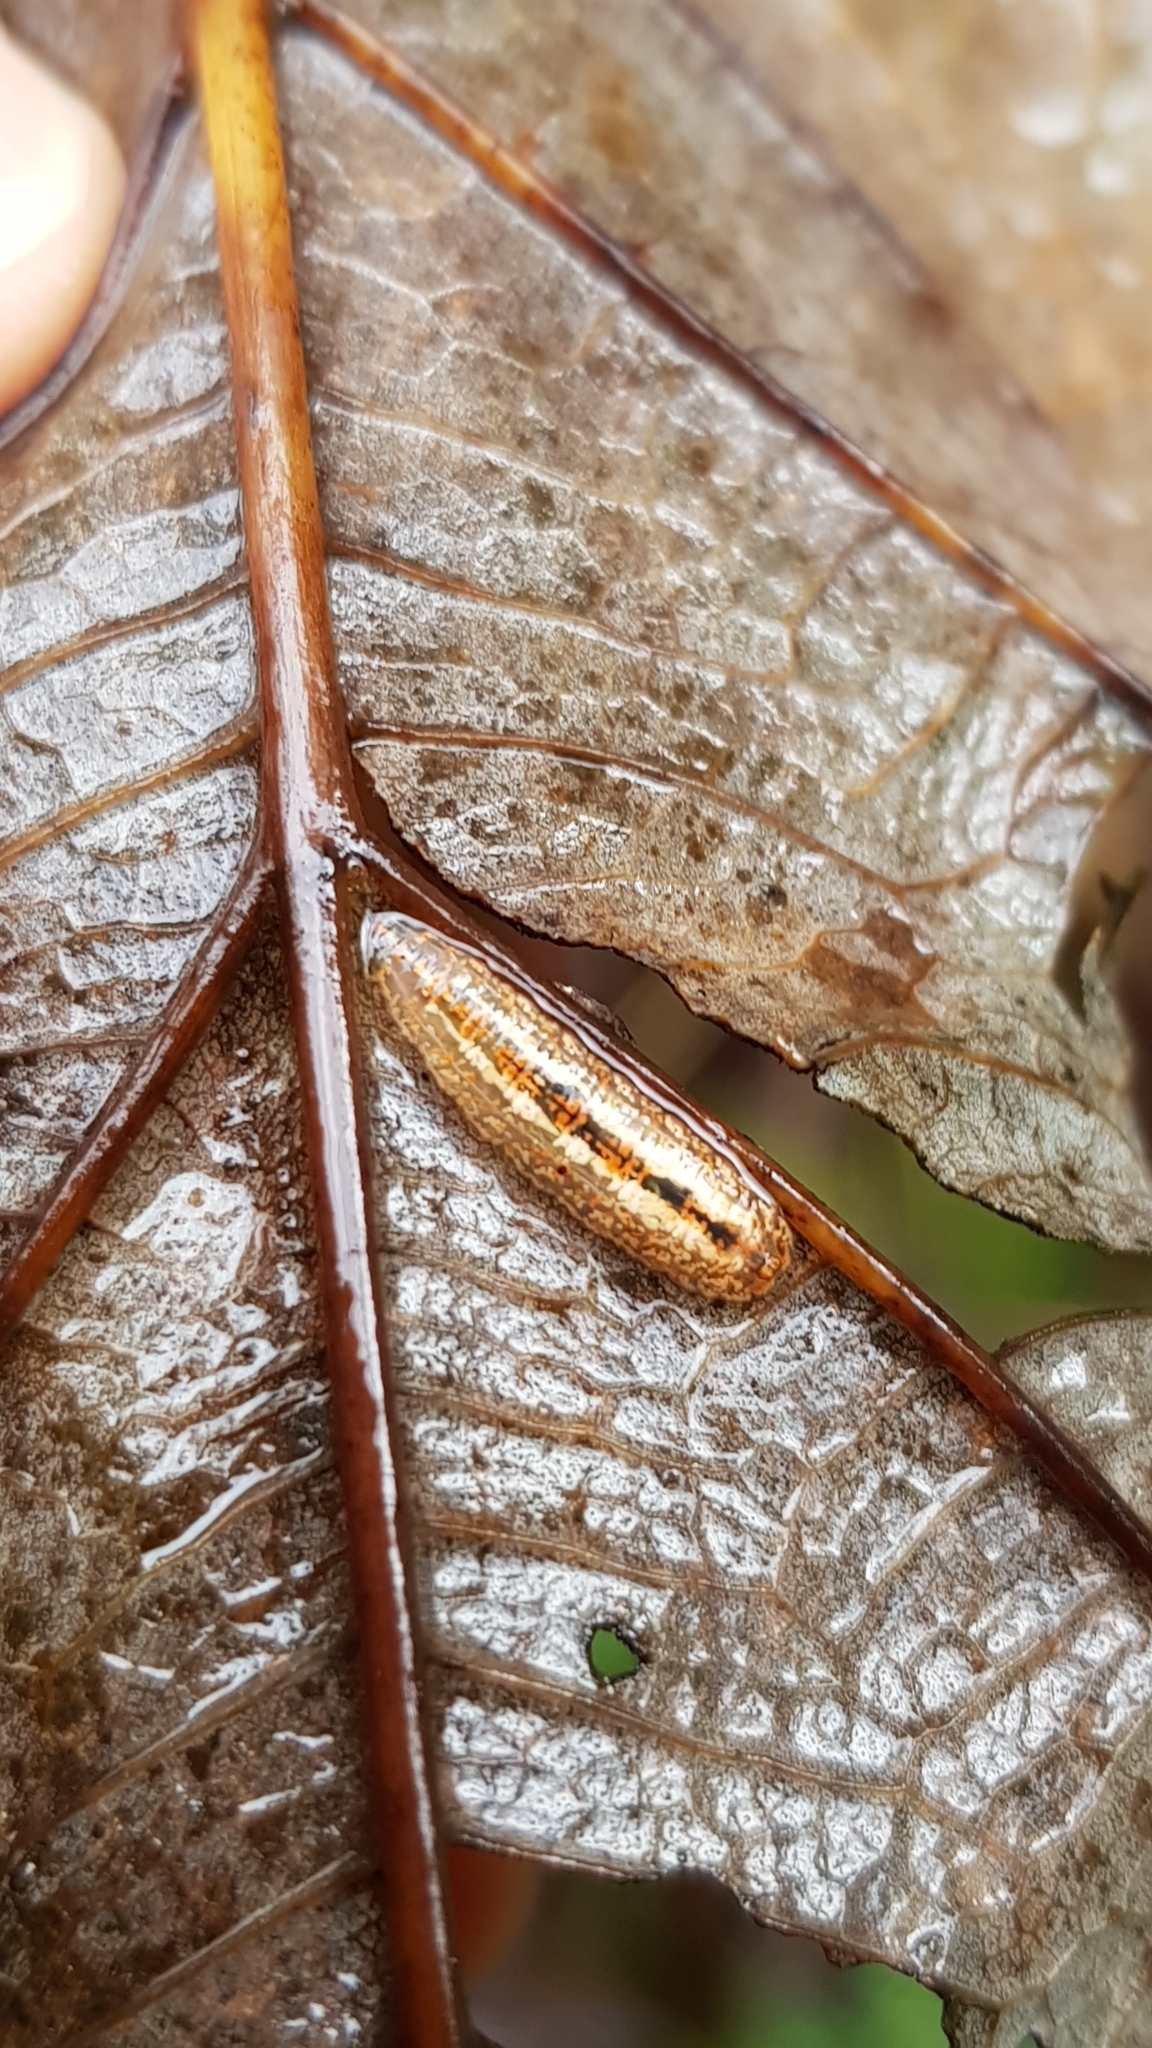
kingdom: Animalia
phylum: Arthropoda
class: Insecta
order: Diptera
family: Syrphidae
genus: Syrphus
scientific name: Syrphus
